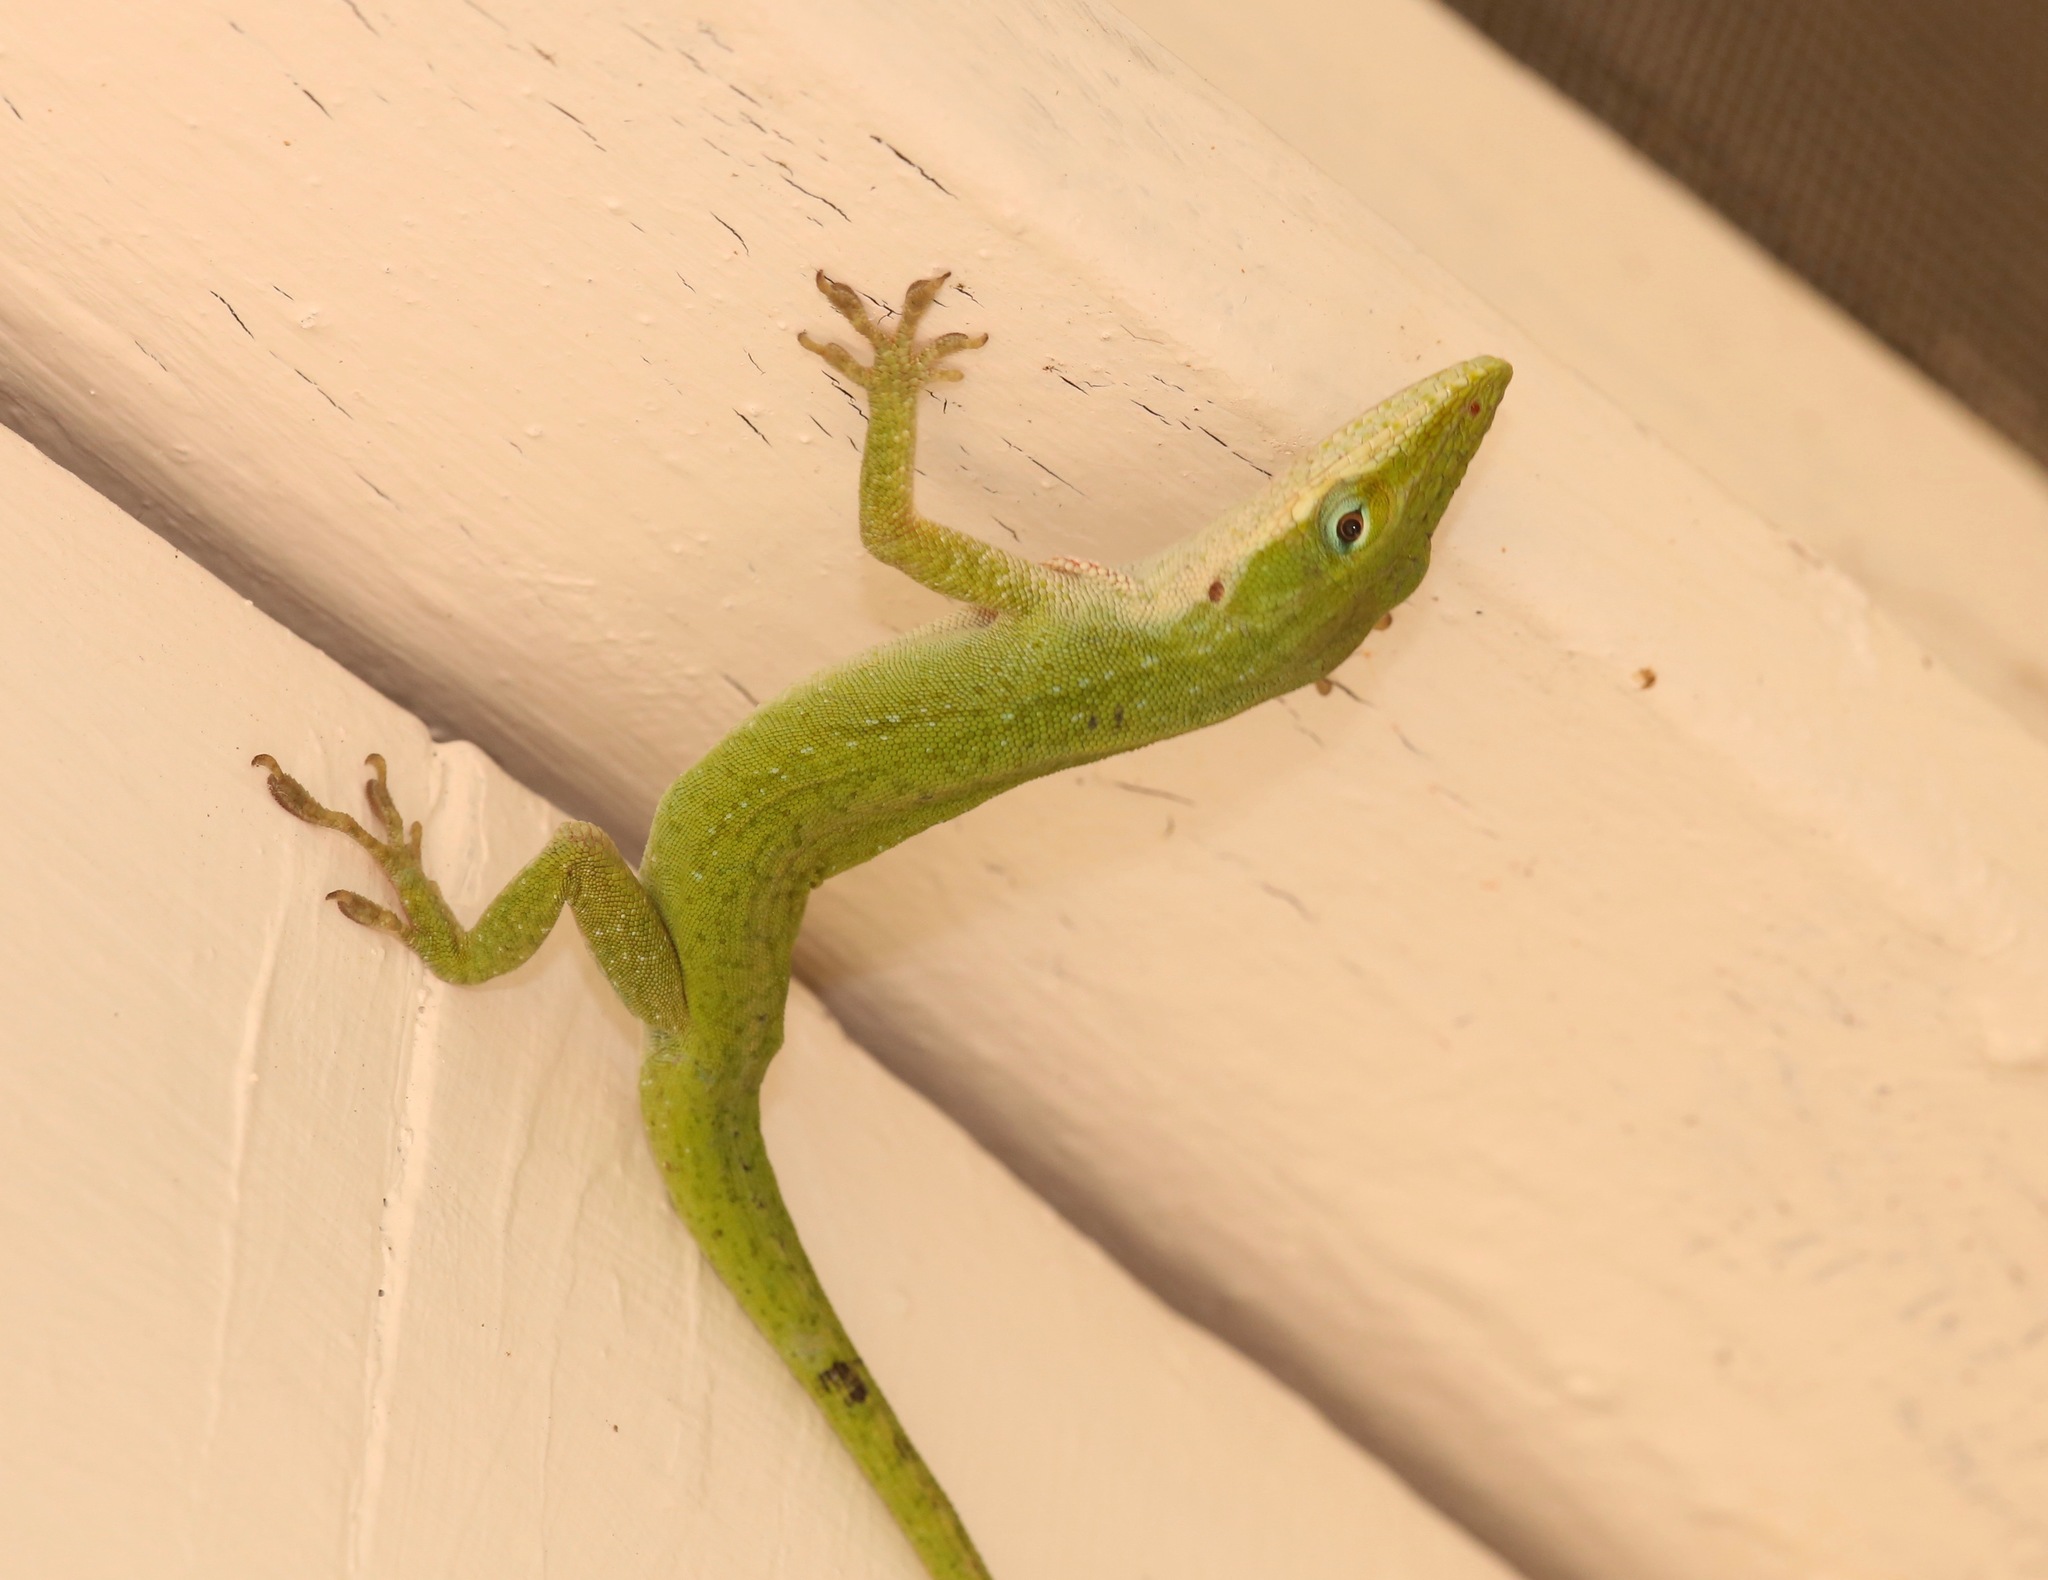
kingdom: Animalia
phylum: Chordata
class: Squamata
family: Dactyloidae
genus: Anolis
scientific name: Anolis carolinensis
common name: Green anole
